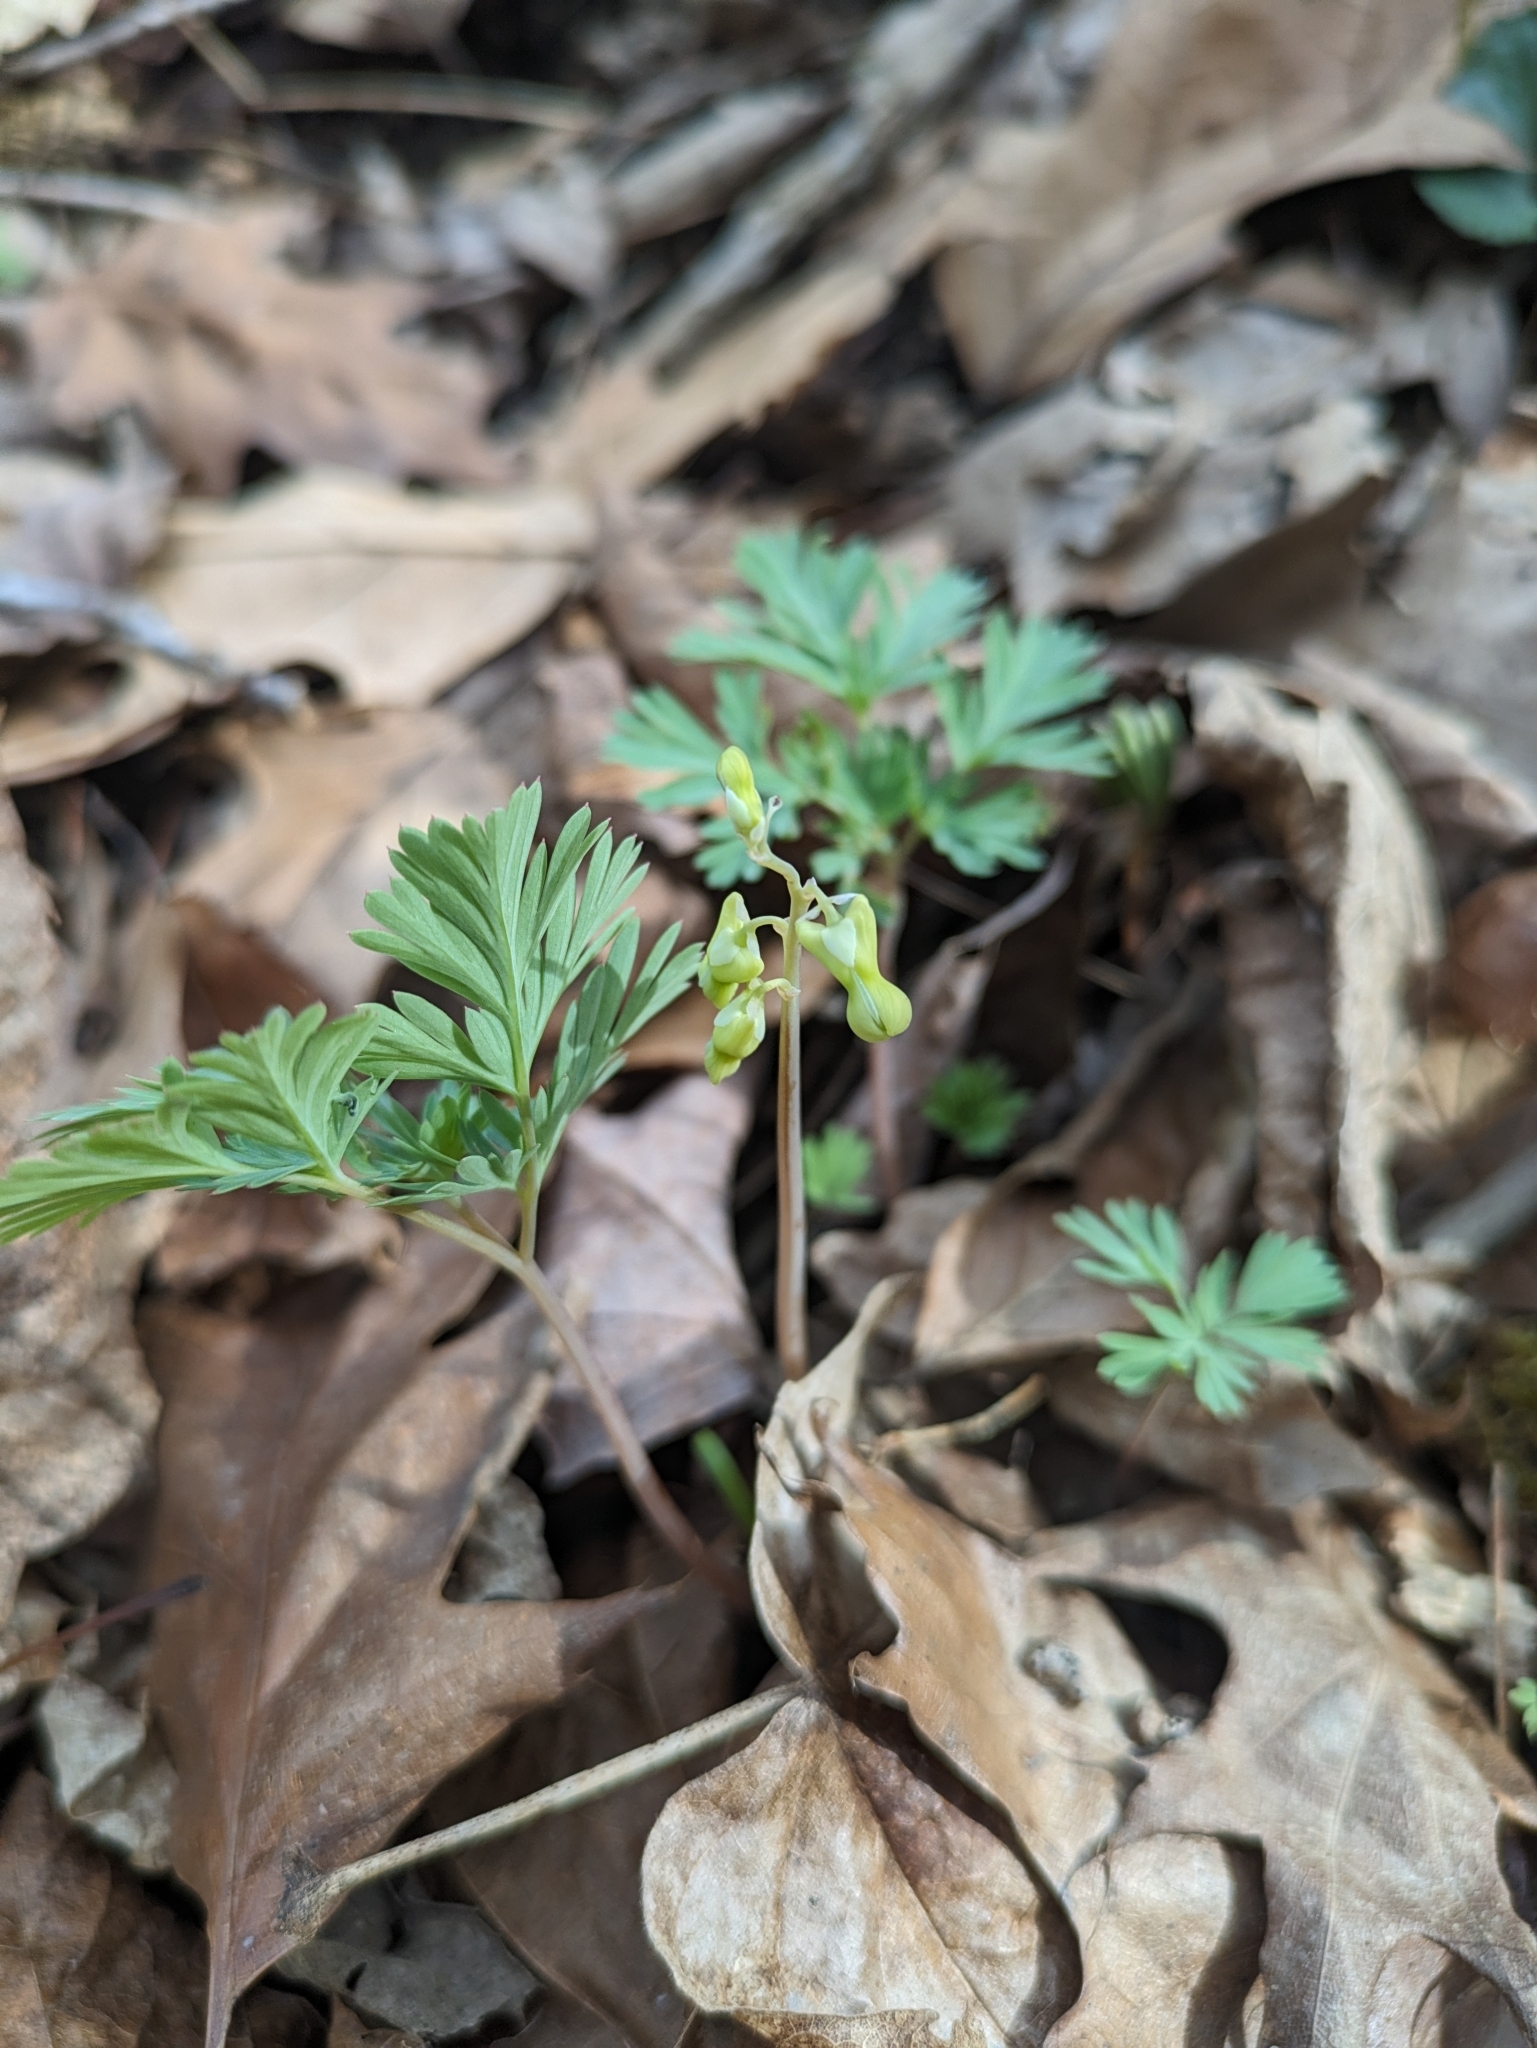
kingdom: Plantae
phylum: Tracheophyta
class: Magnoliopsida
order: Ranunculales
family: Papaveraceae
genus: Dicentra
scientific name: Dicentra cucullaria
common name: Dutchman's breeches
